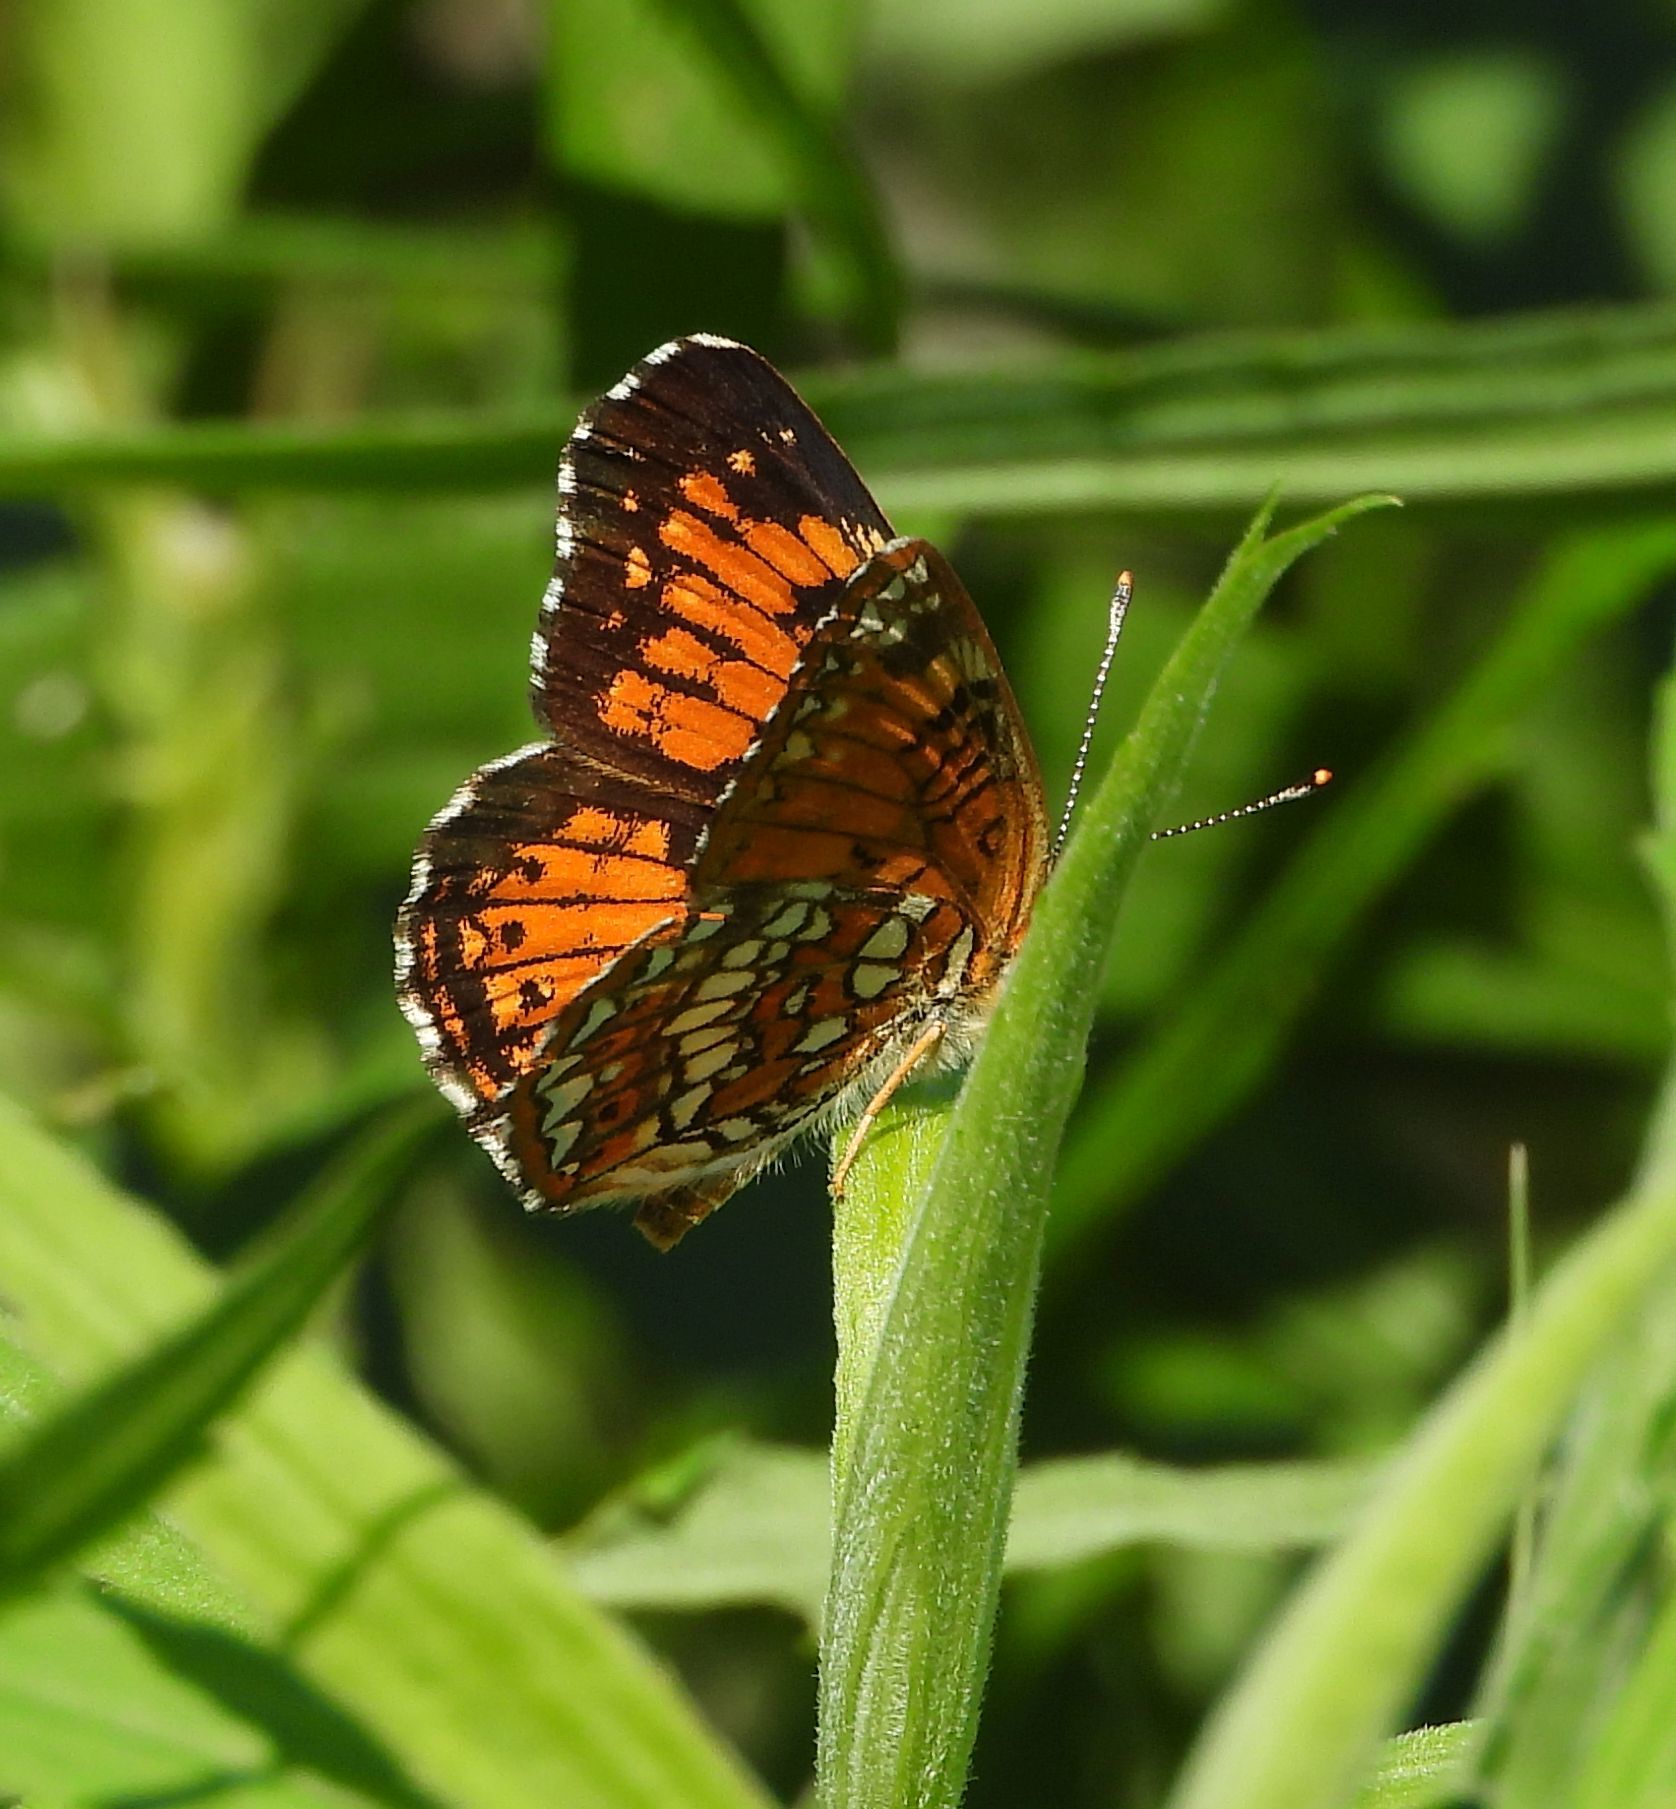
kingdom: Animalia
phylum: Arthropoda
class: Insecta
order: Lepidoptera
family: Nymphalidae
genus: Chlosyne
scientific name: Chlosyne harrisii
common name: Harris's checkerspot
